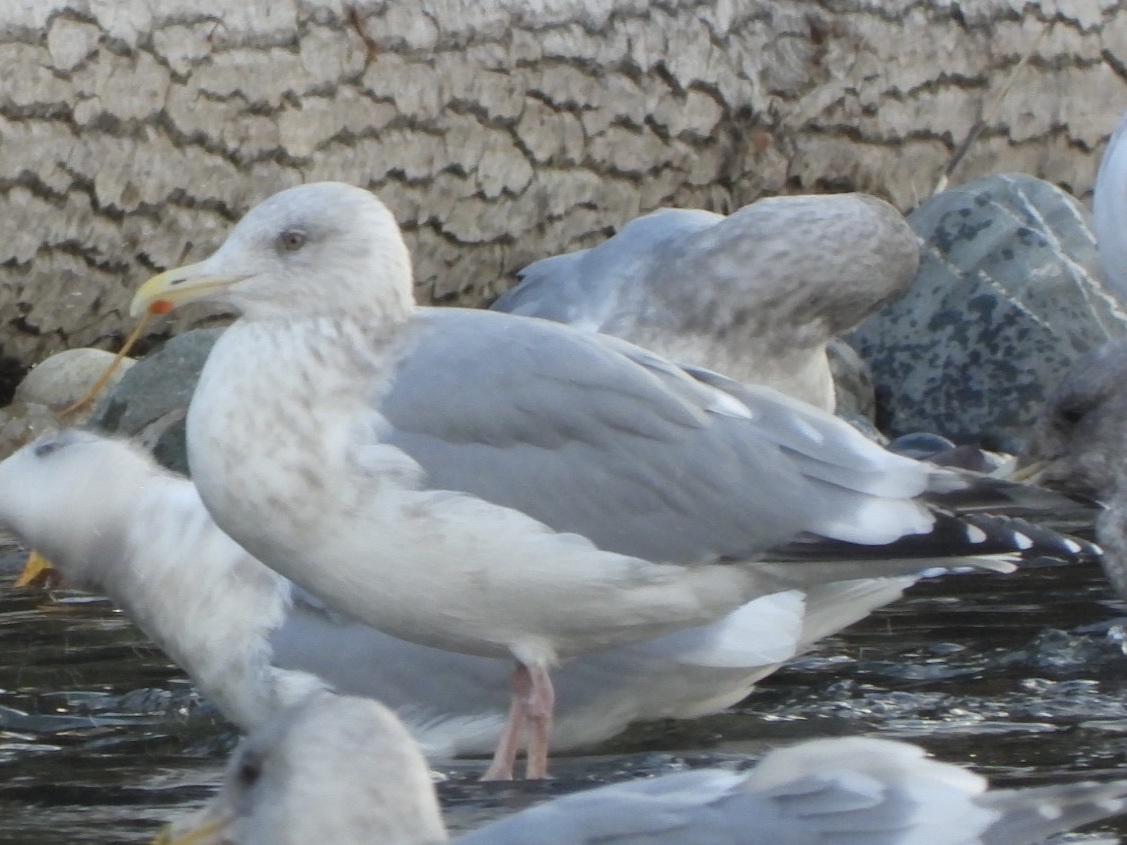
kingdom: Animalia
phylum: Chordata
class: Aves
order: Charadriiformes
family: Laridae
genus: Larus
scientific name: Larus
